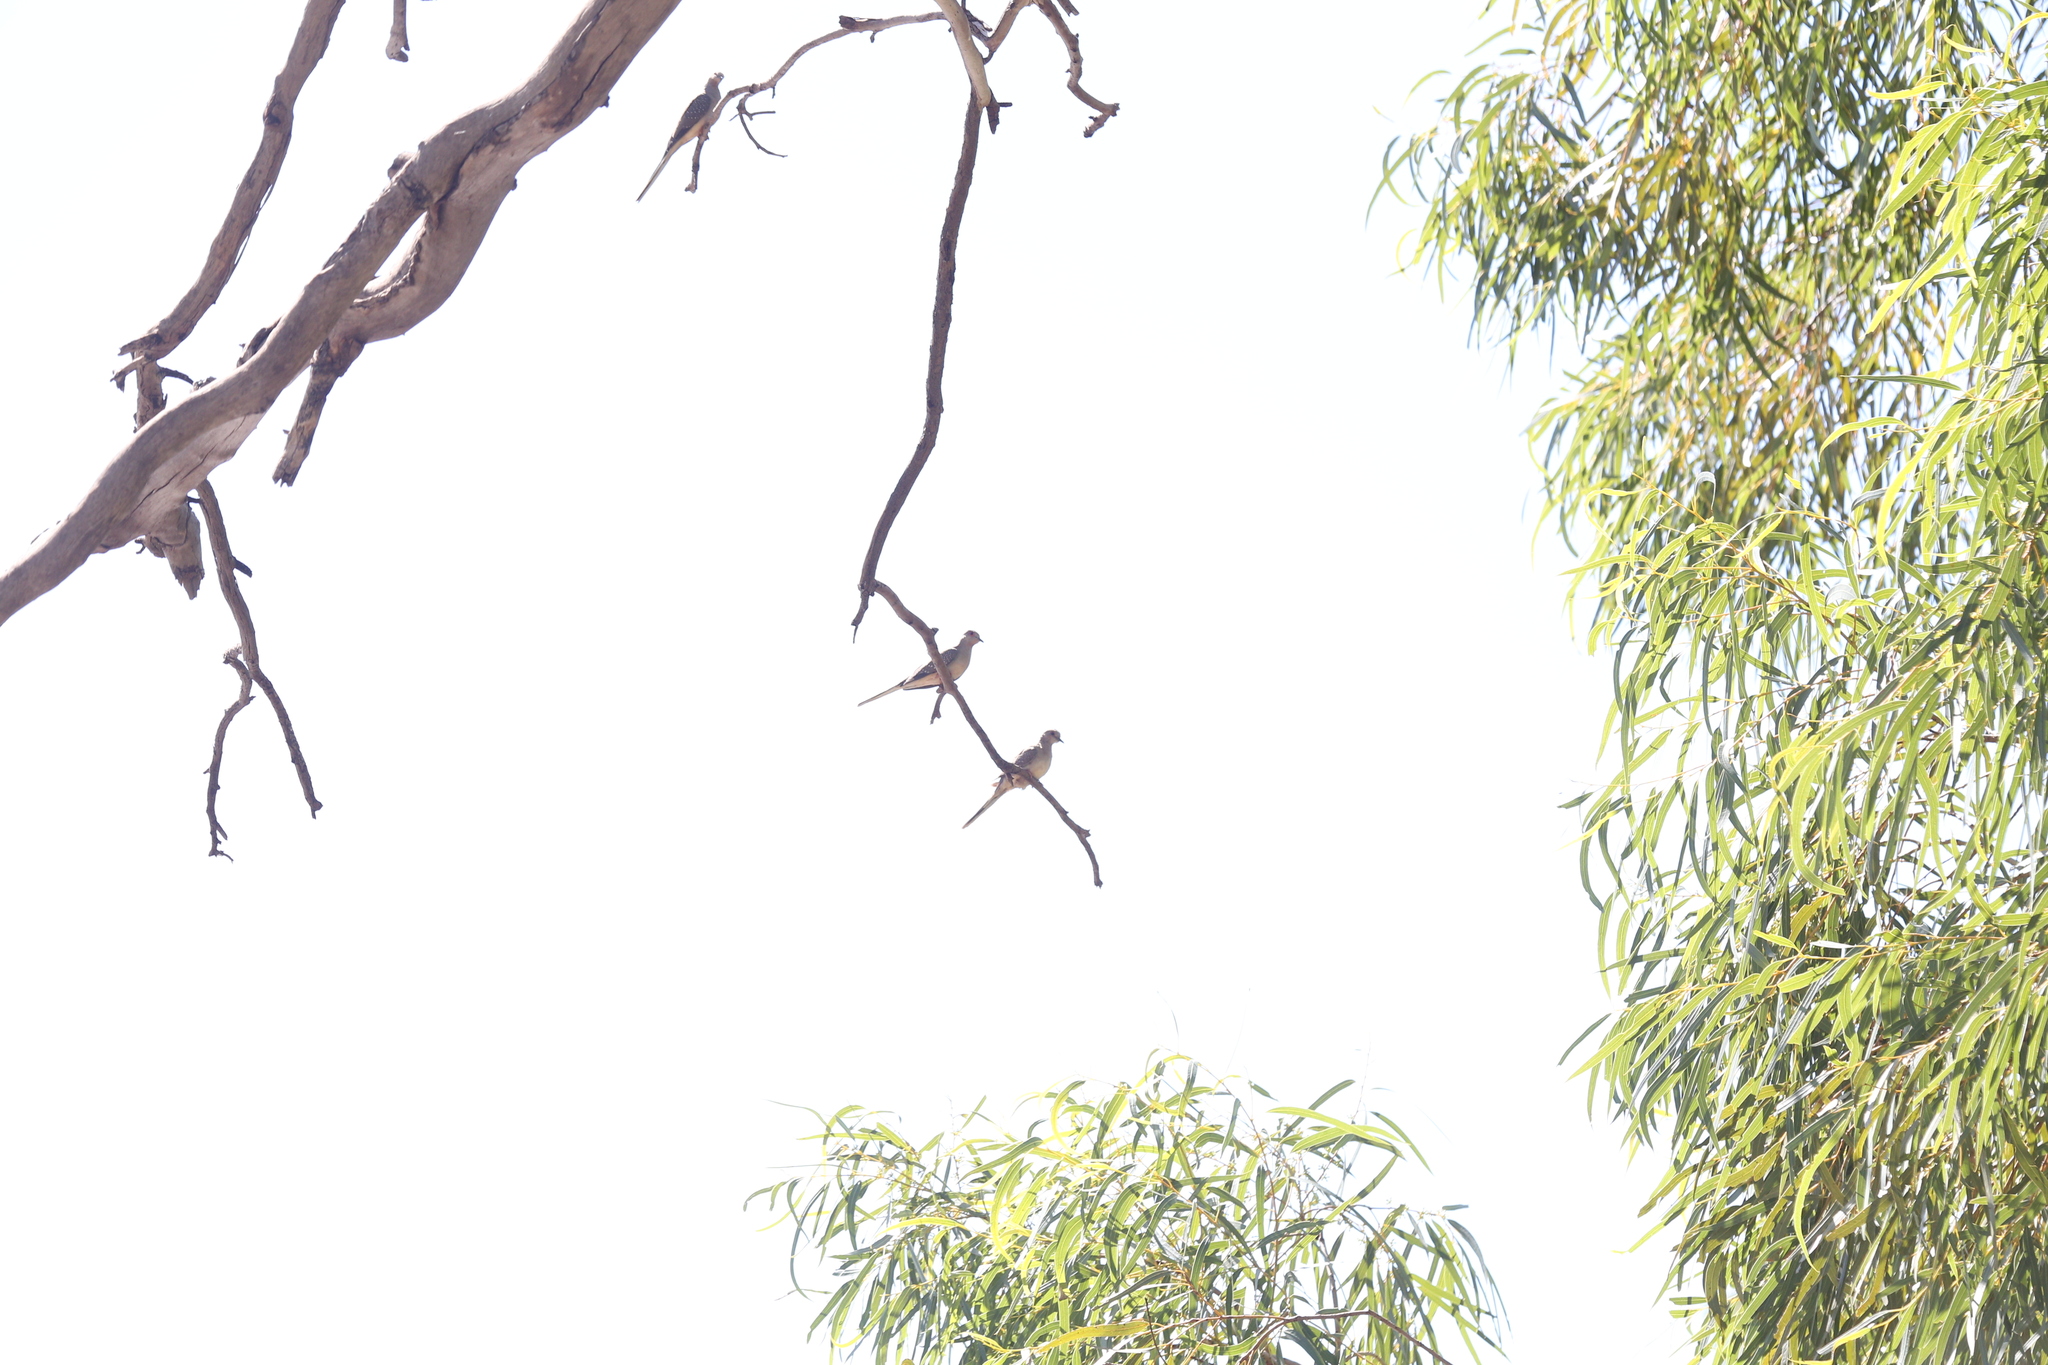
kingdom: Animalia
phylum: Chordata
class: Aves
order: Columbiformes
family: Columbidae
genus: Geopelia
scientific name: Geopelia cuneata
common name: Diamond dove
